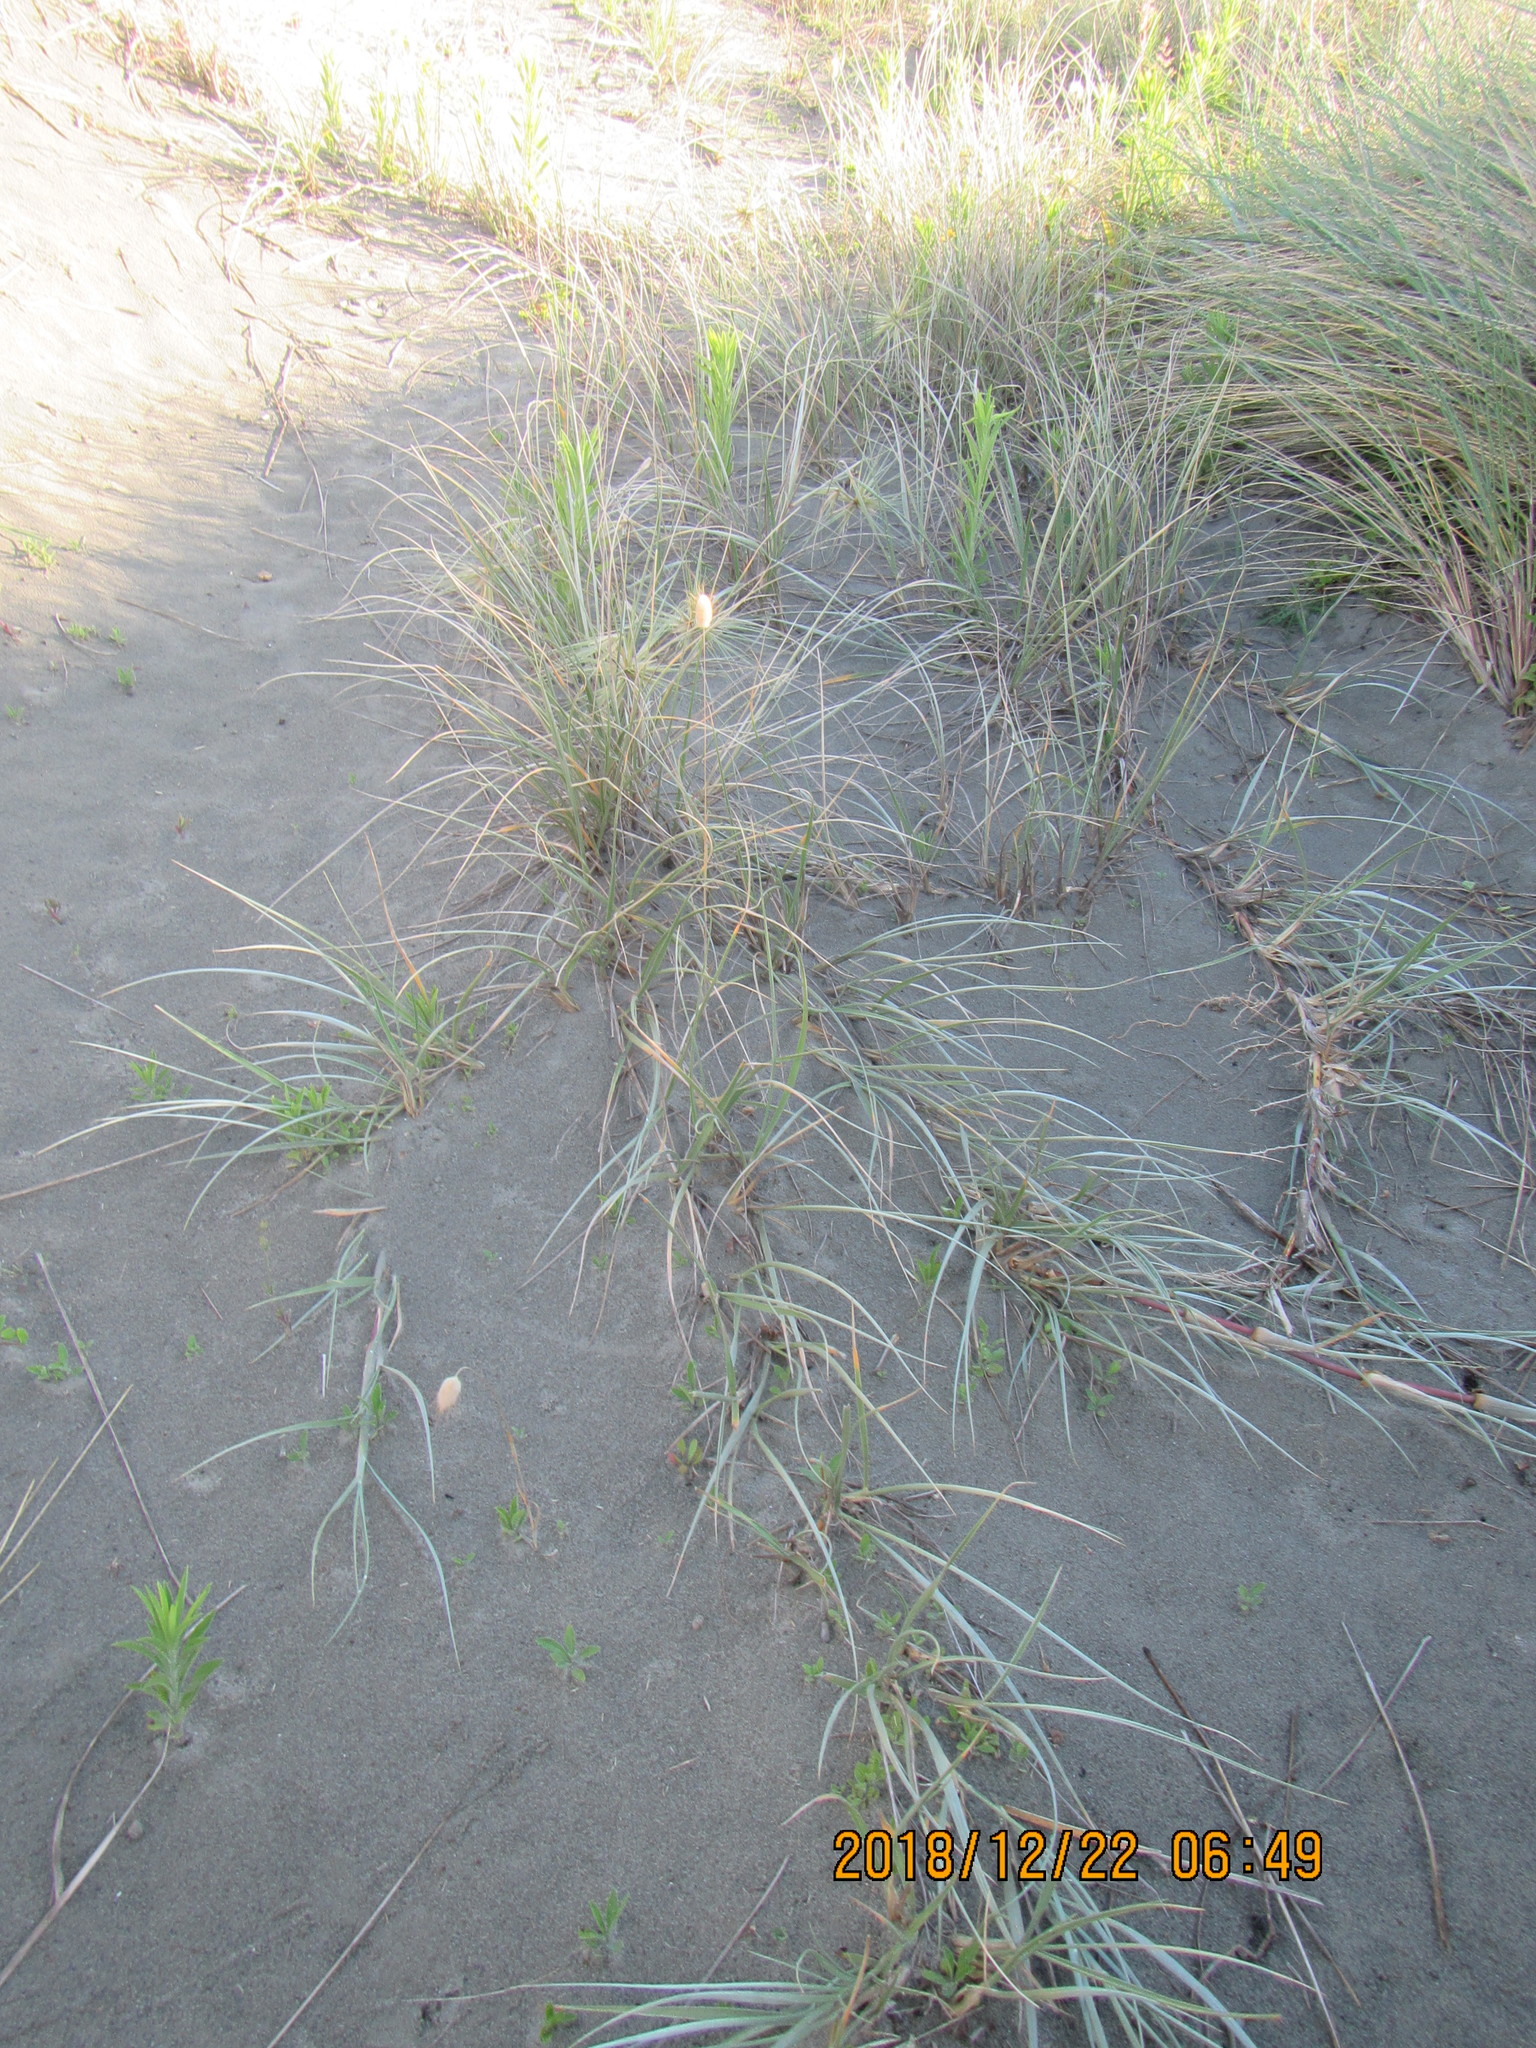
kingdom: Plantae
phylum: Tracheophyta
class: Liliopsida
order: Poales
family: Poaceae
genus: Spinifex
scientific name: Spinifex sericeus
